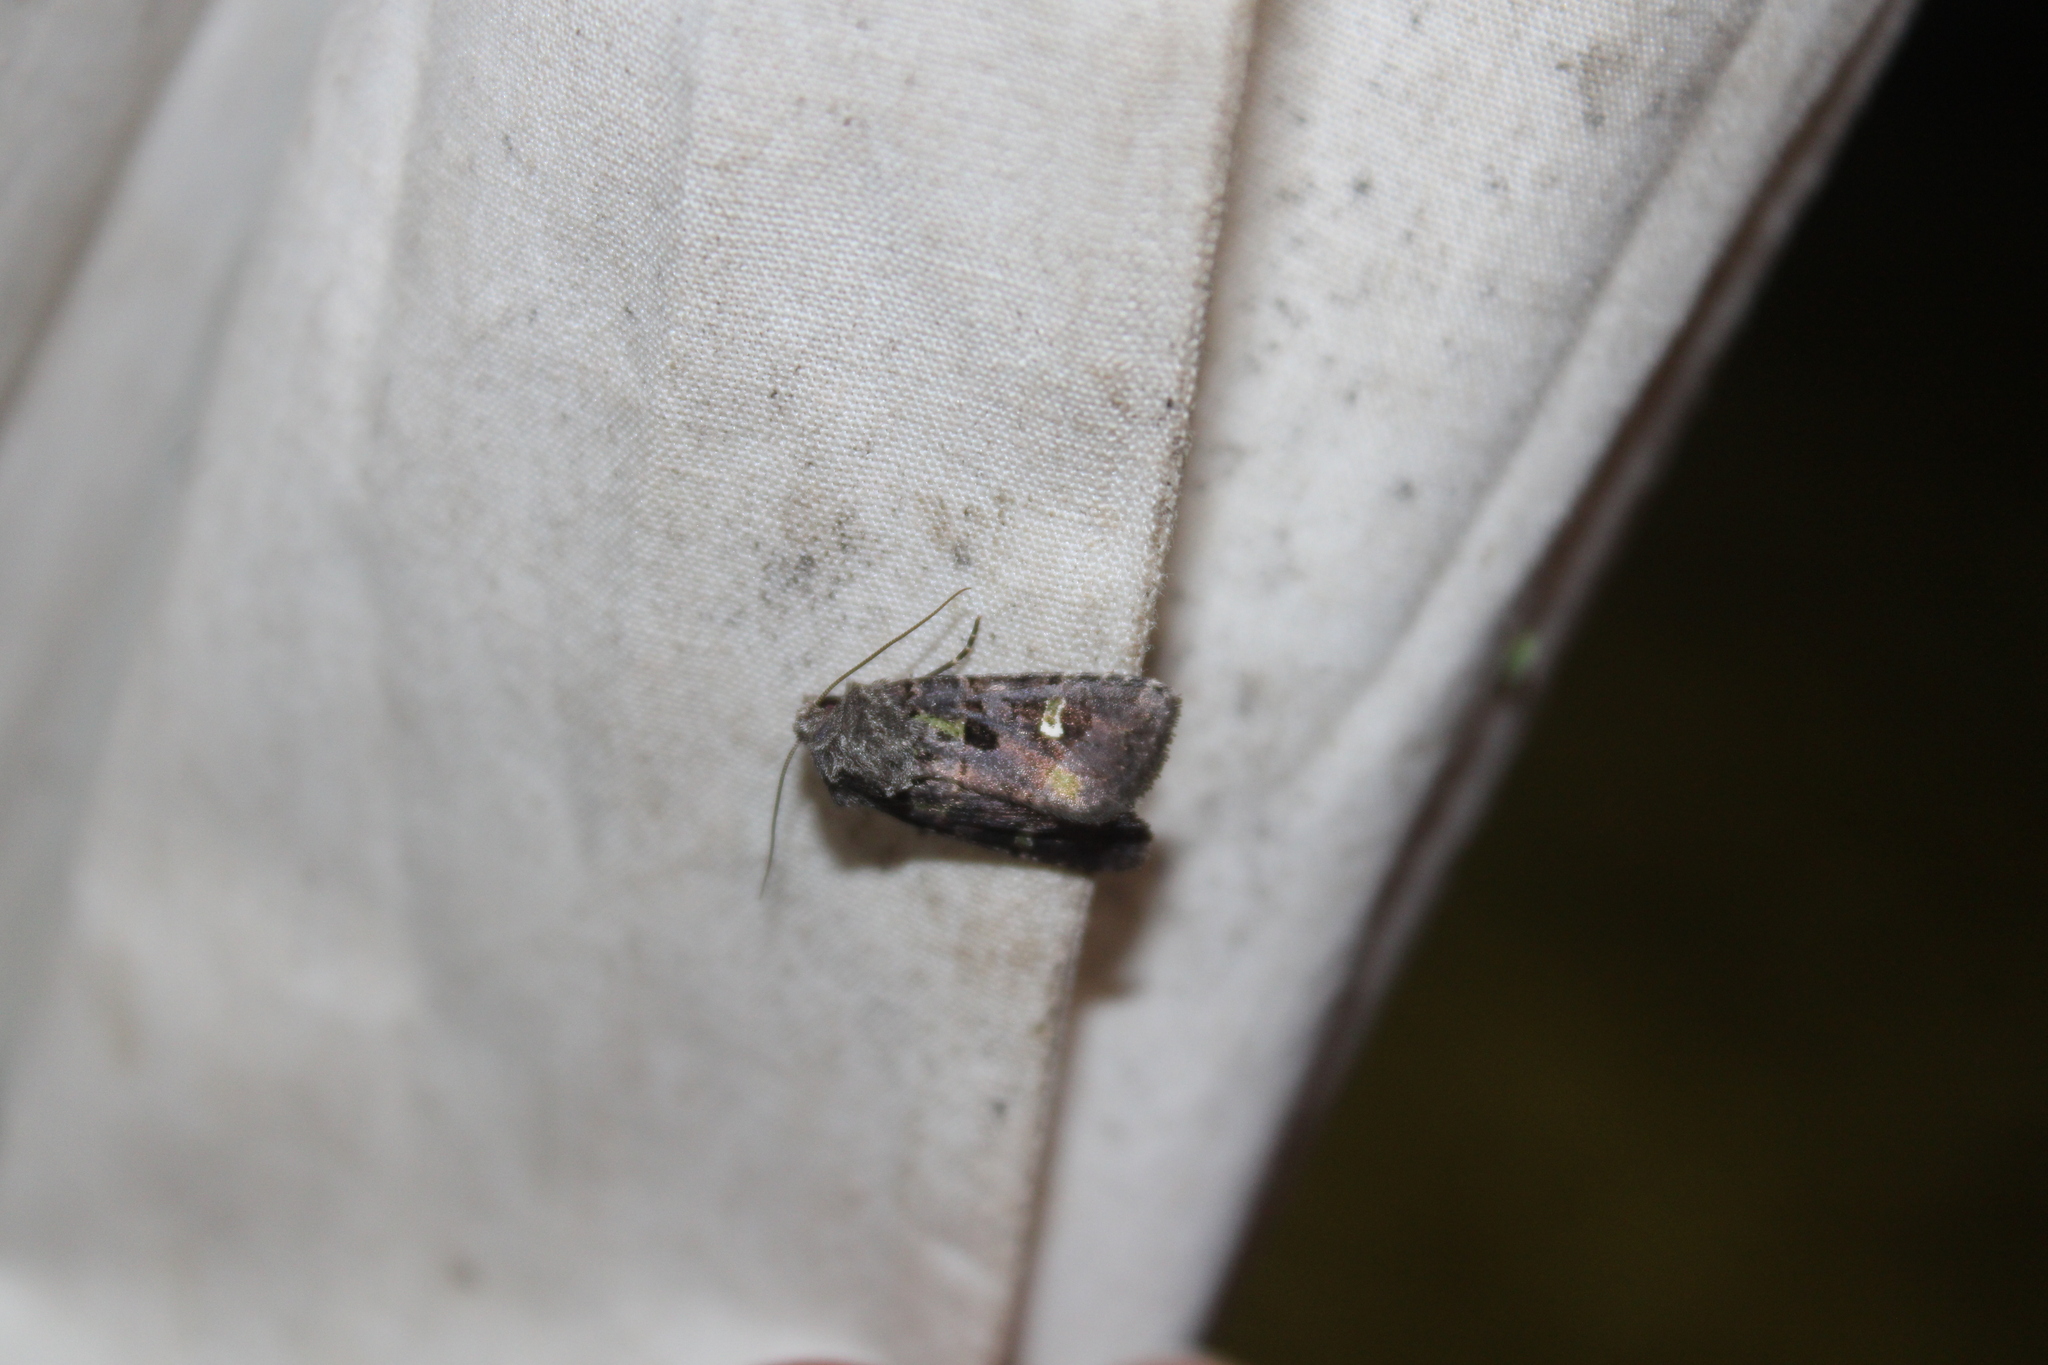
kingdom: Animalia
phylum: Arthropoda
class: Insecta
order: Lepidoptera
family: Noctuidae
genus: Lacinipolia
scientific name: Lacinipolia renigera
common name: Kidney-spotted minor
